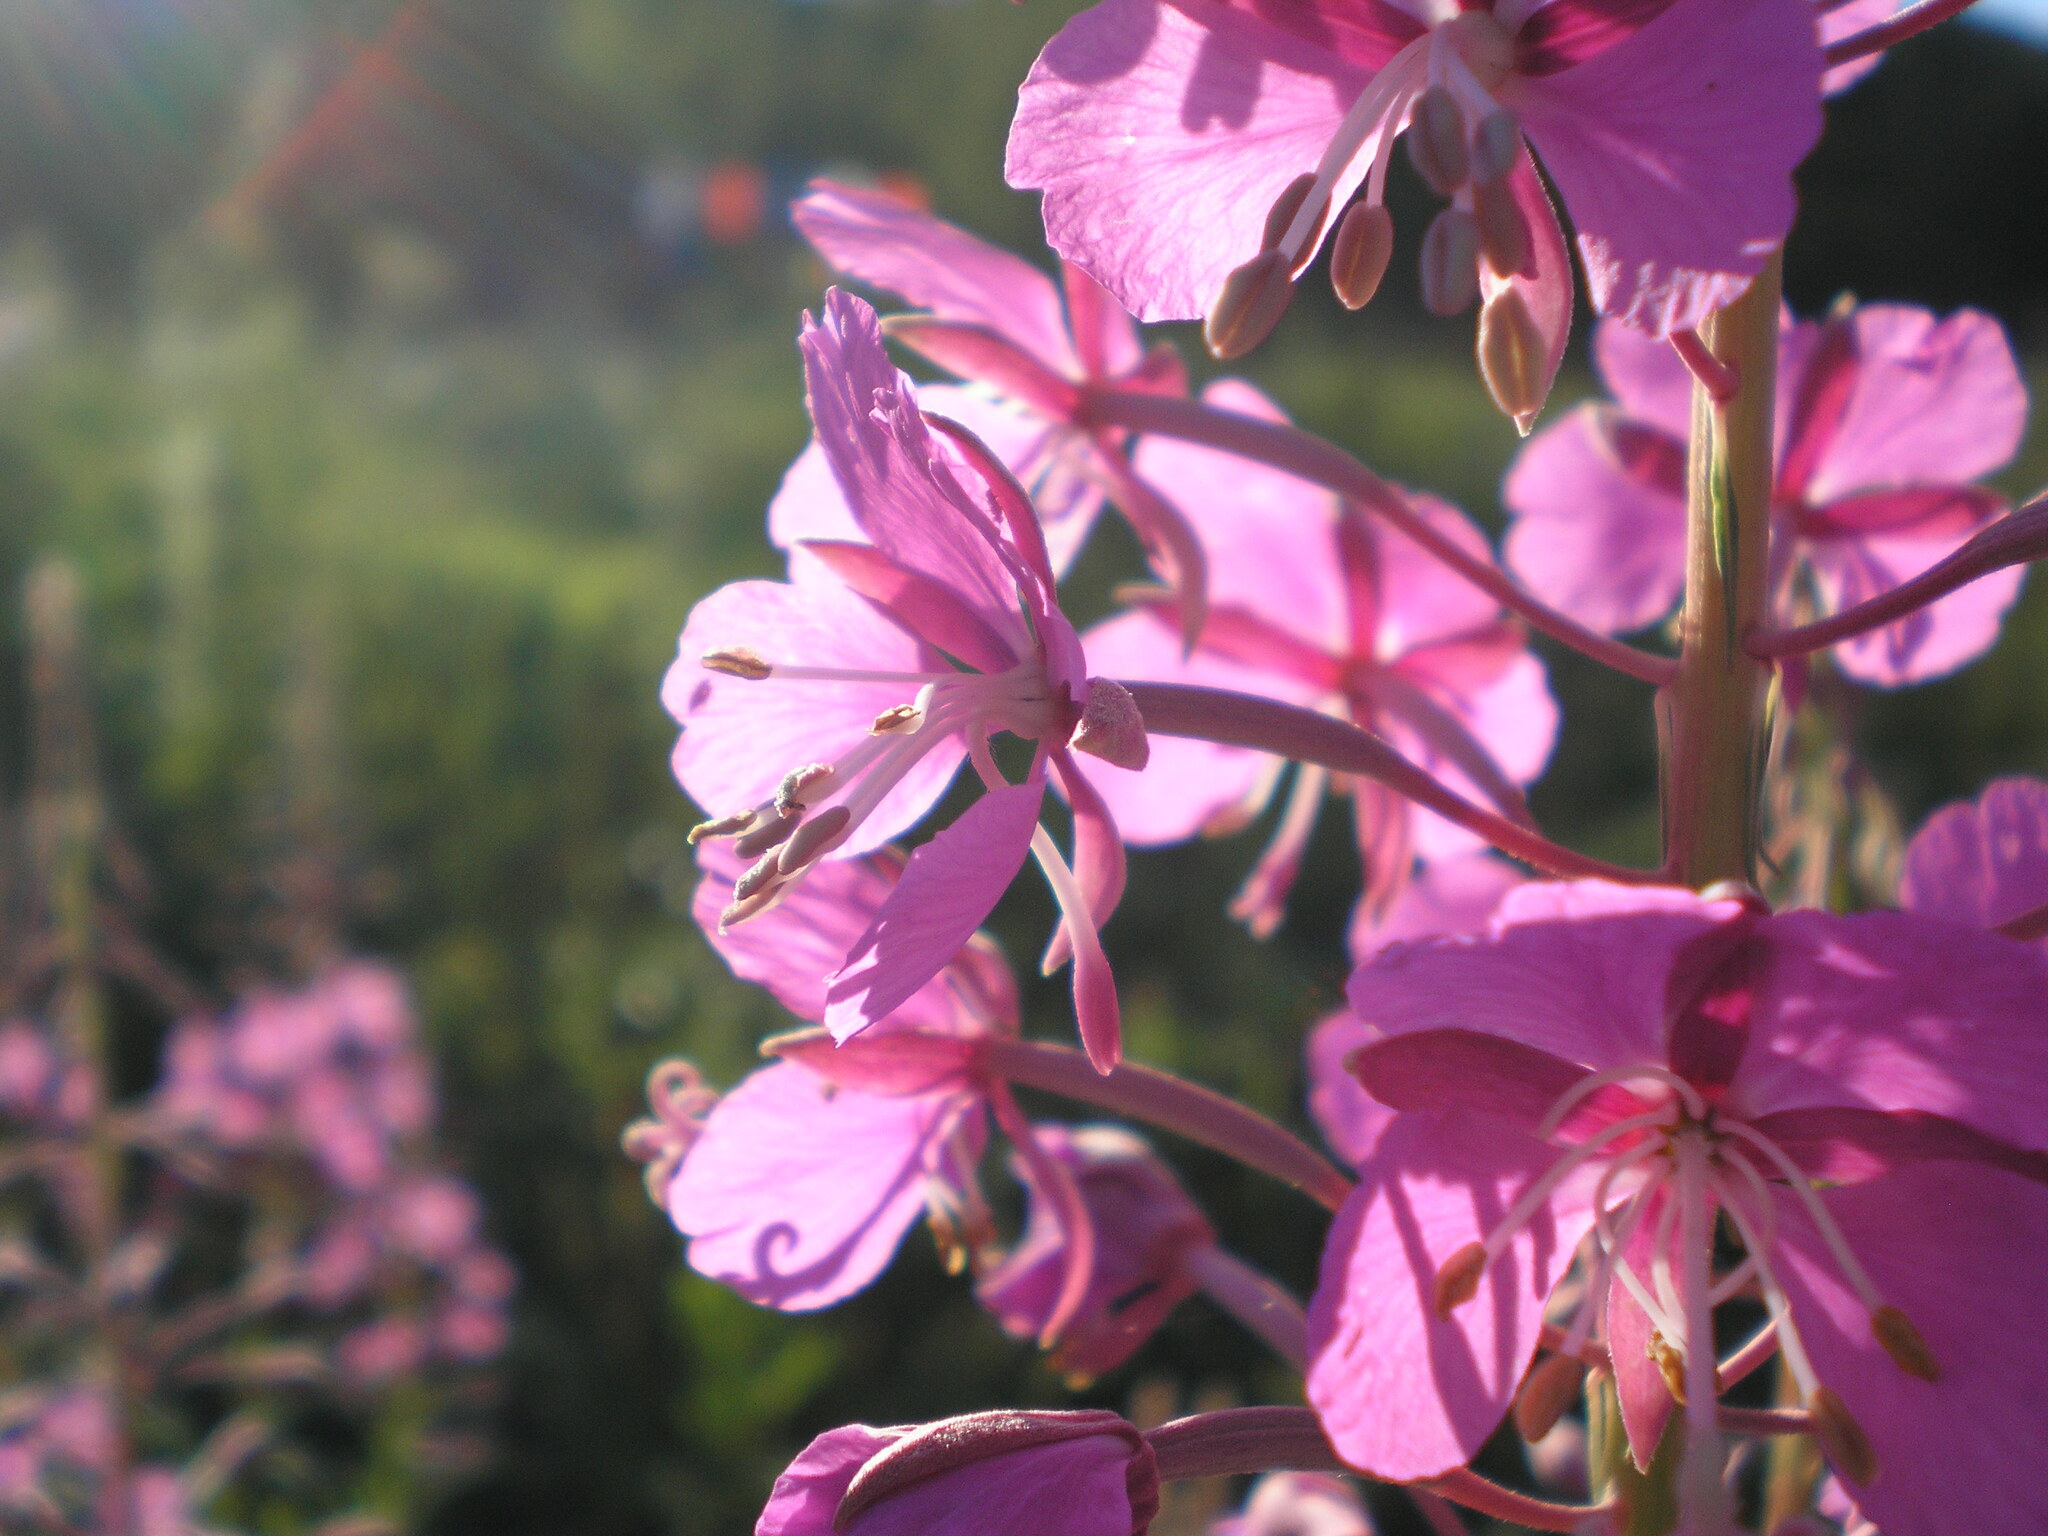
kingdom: Plantae
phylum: Tracheophyta
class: Magnoliopsida
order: Myrtales
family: Onagraceae
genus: Chamaenerion
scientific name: Chamaenerion angustifolium
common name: Fireweed
